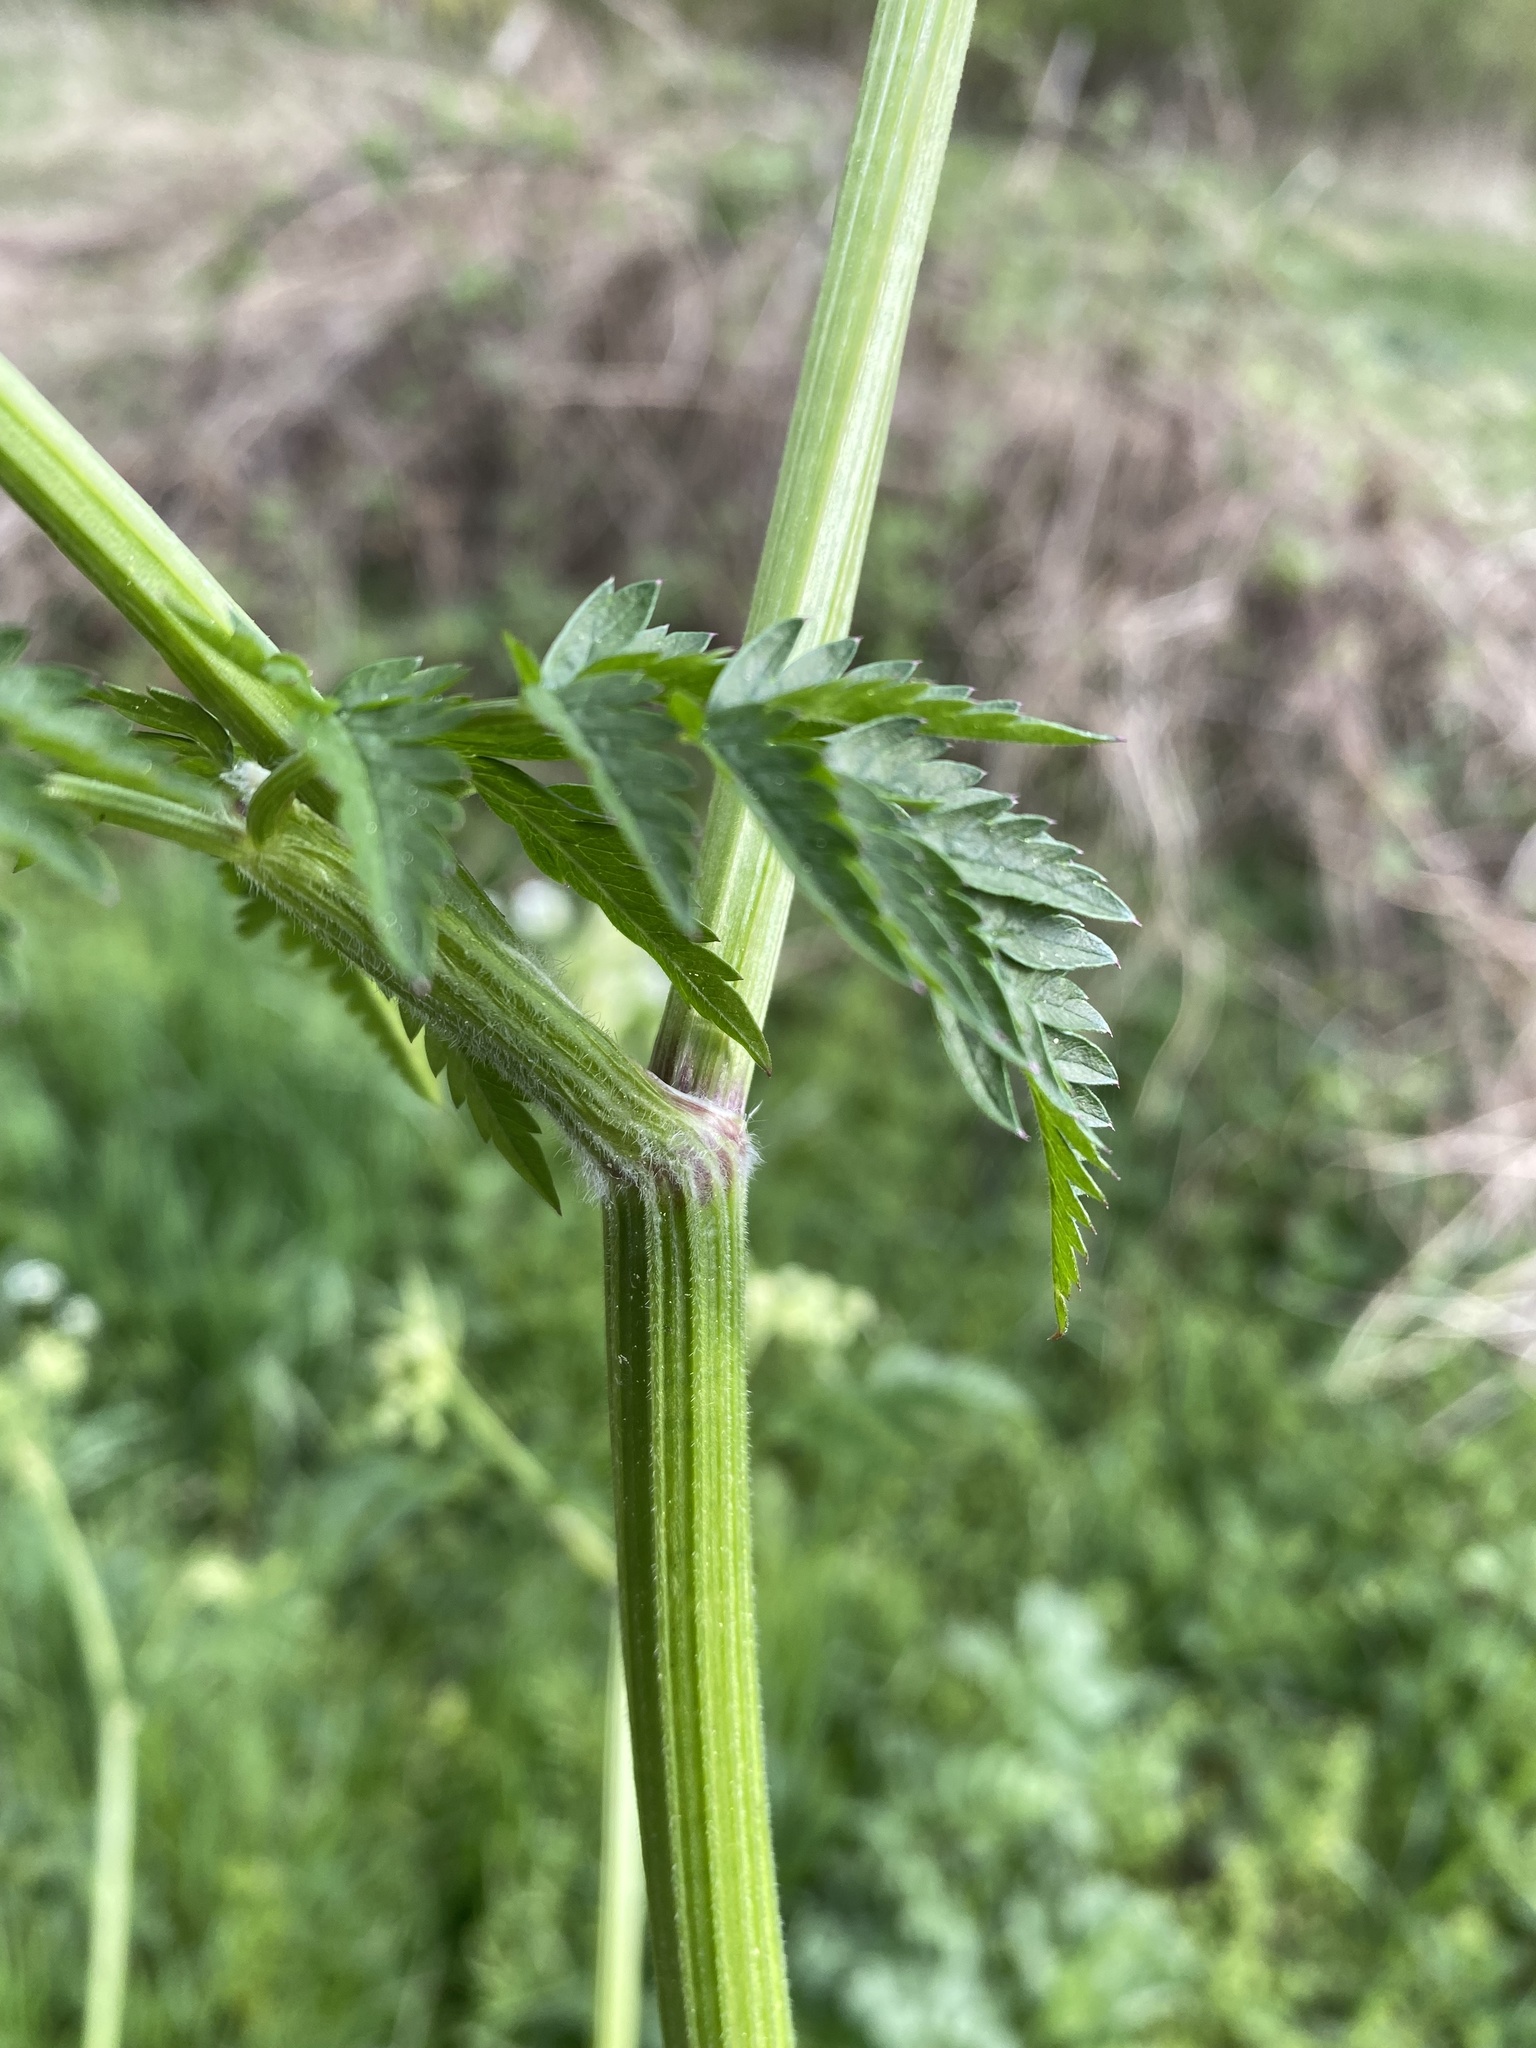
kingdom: Plantae
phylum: Tracheophyta
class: Magnoliopsida
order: Apiales
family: Apiaceae
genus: Anthriscus
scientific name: Anthriscus sylvestris
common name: Cow parsley
